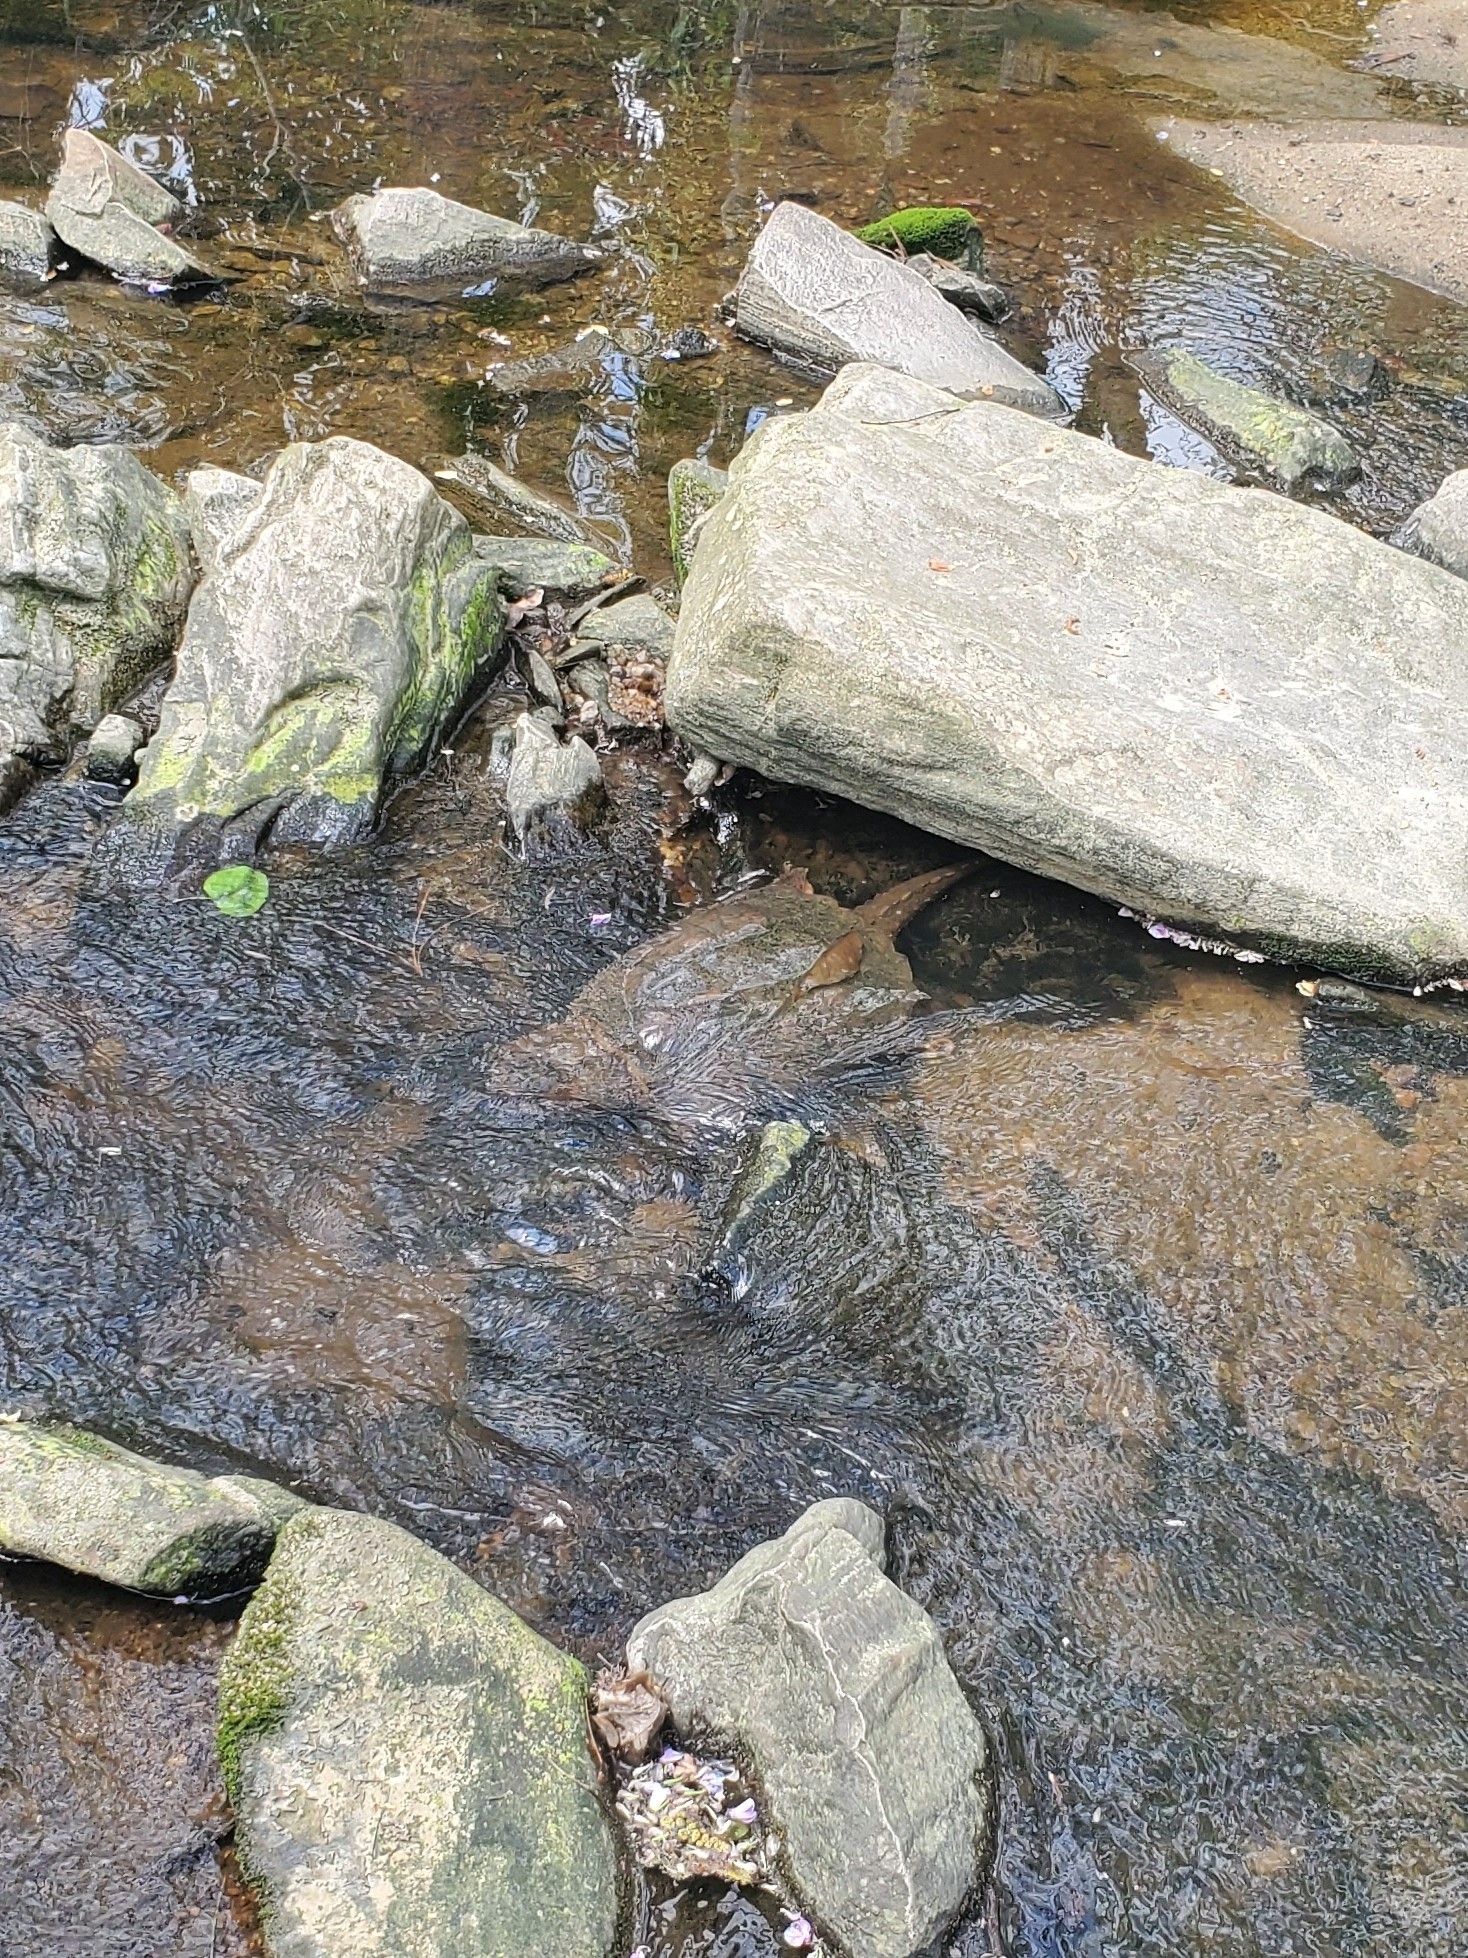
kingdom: Animalia
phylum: Chordata
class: Testudines
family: Chelydridae
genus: Chelydra
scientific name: Chelydra serpentina
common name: Common snapping turtle
